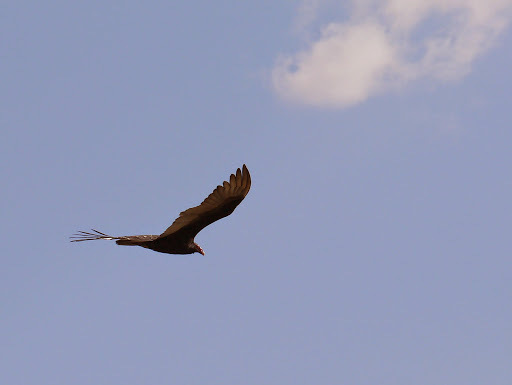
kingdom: Animalia
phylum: Chordata
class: Aves
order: Accipitriformes
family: Cathartidae
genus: Cathartes
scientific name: Cathartes aura
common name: Turkey vulture
